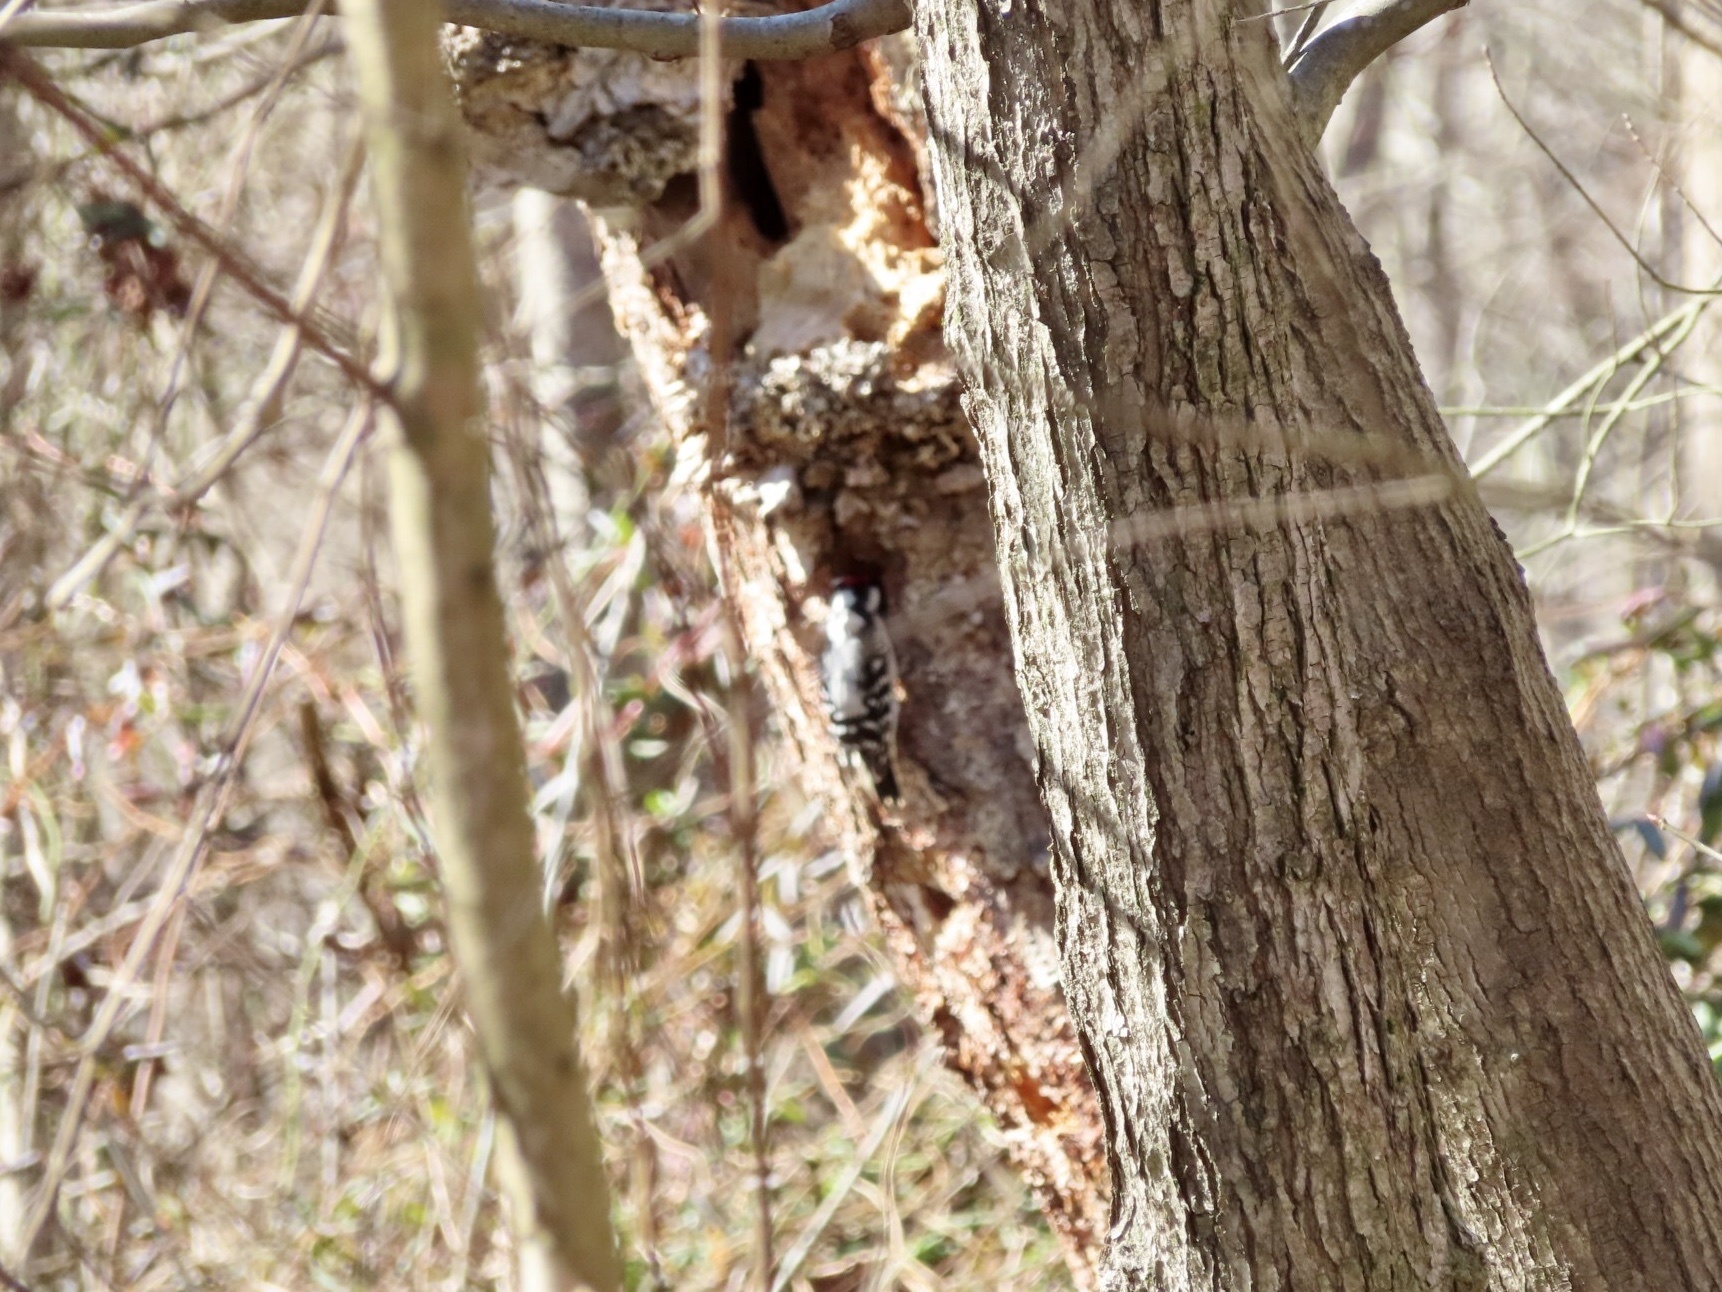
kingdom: Animalia
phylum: Chordata
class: Aves
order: Piciformes
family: Picidae
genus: Leuconotopicus
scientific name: Leuconotopicus villosus
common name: Hairy woodpecker
